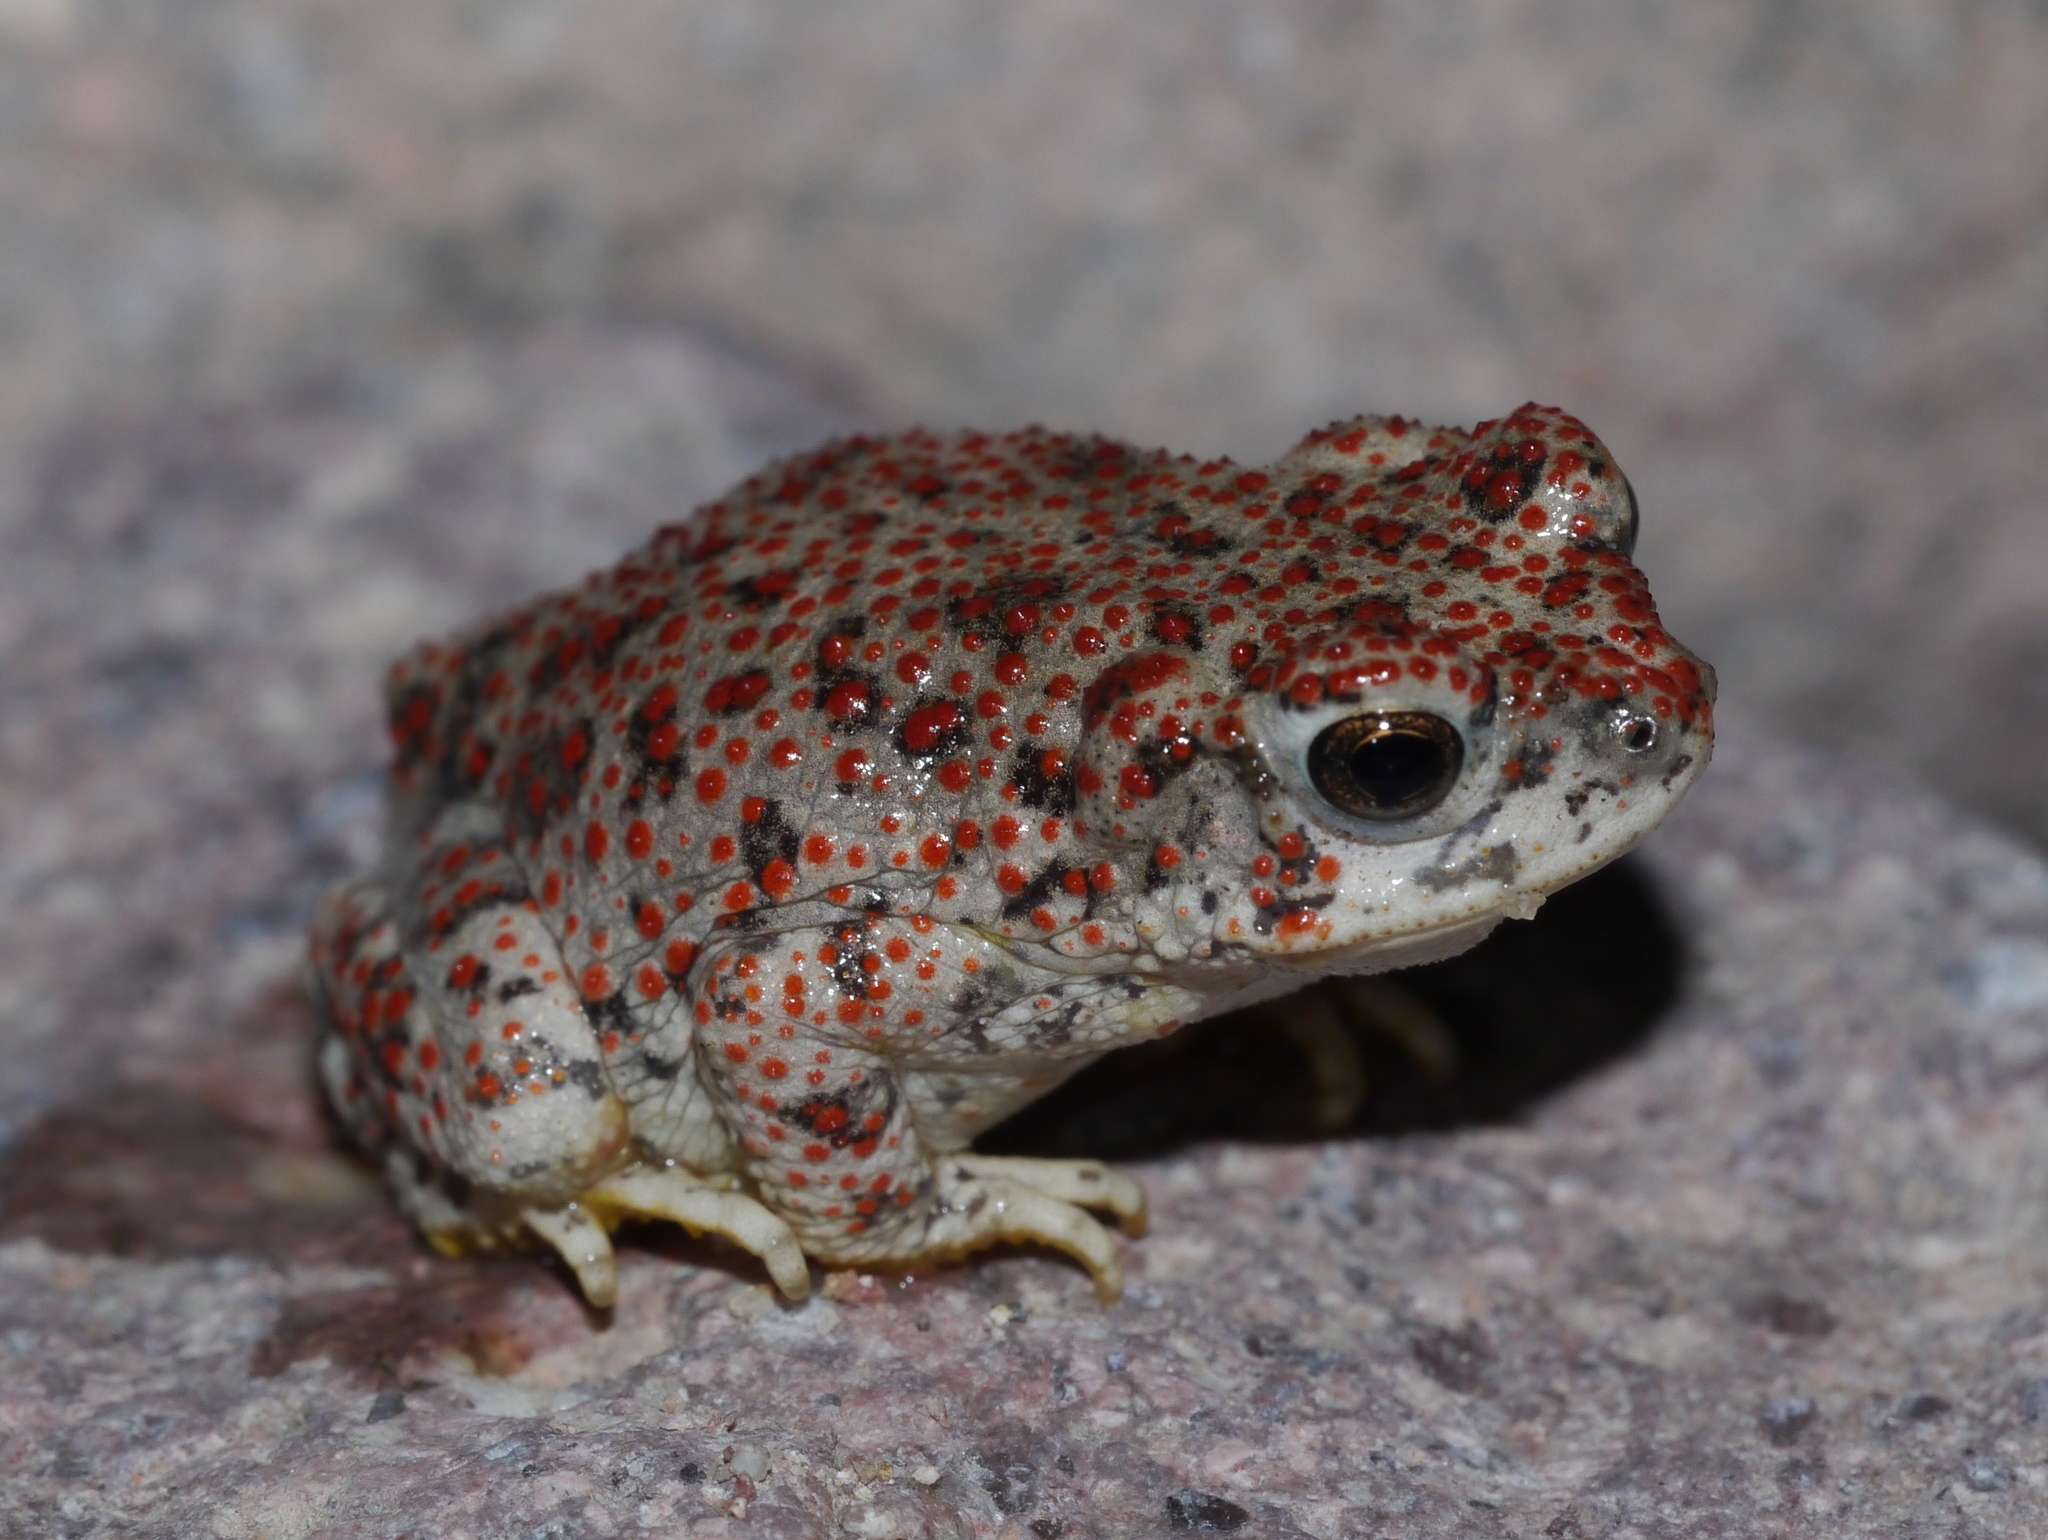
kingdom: Animalia
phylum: Chordata
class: Amphibia
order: Anura
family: Bufonidae
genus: Anaxyrus
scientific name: Anaxyrus punctatus
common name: Red-spotted toad
